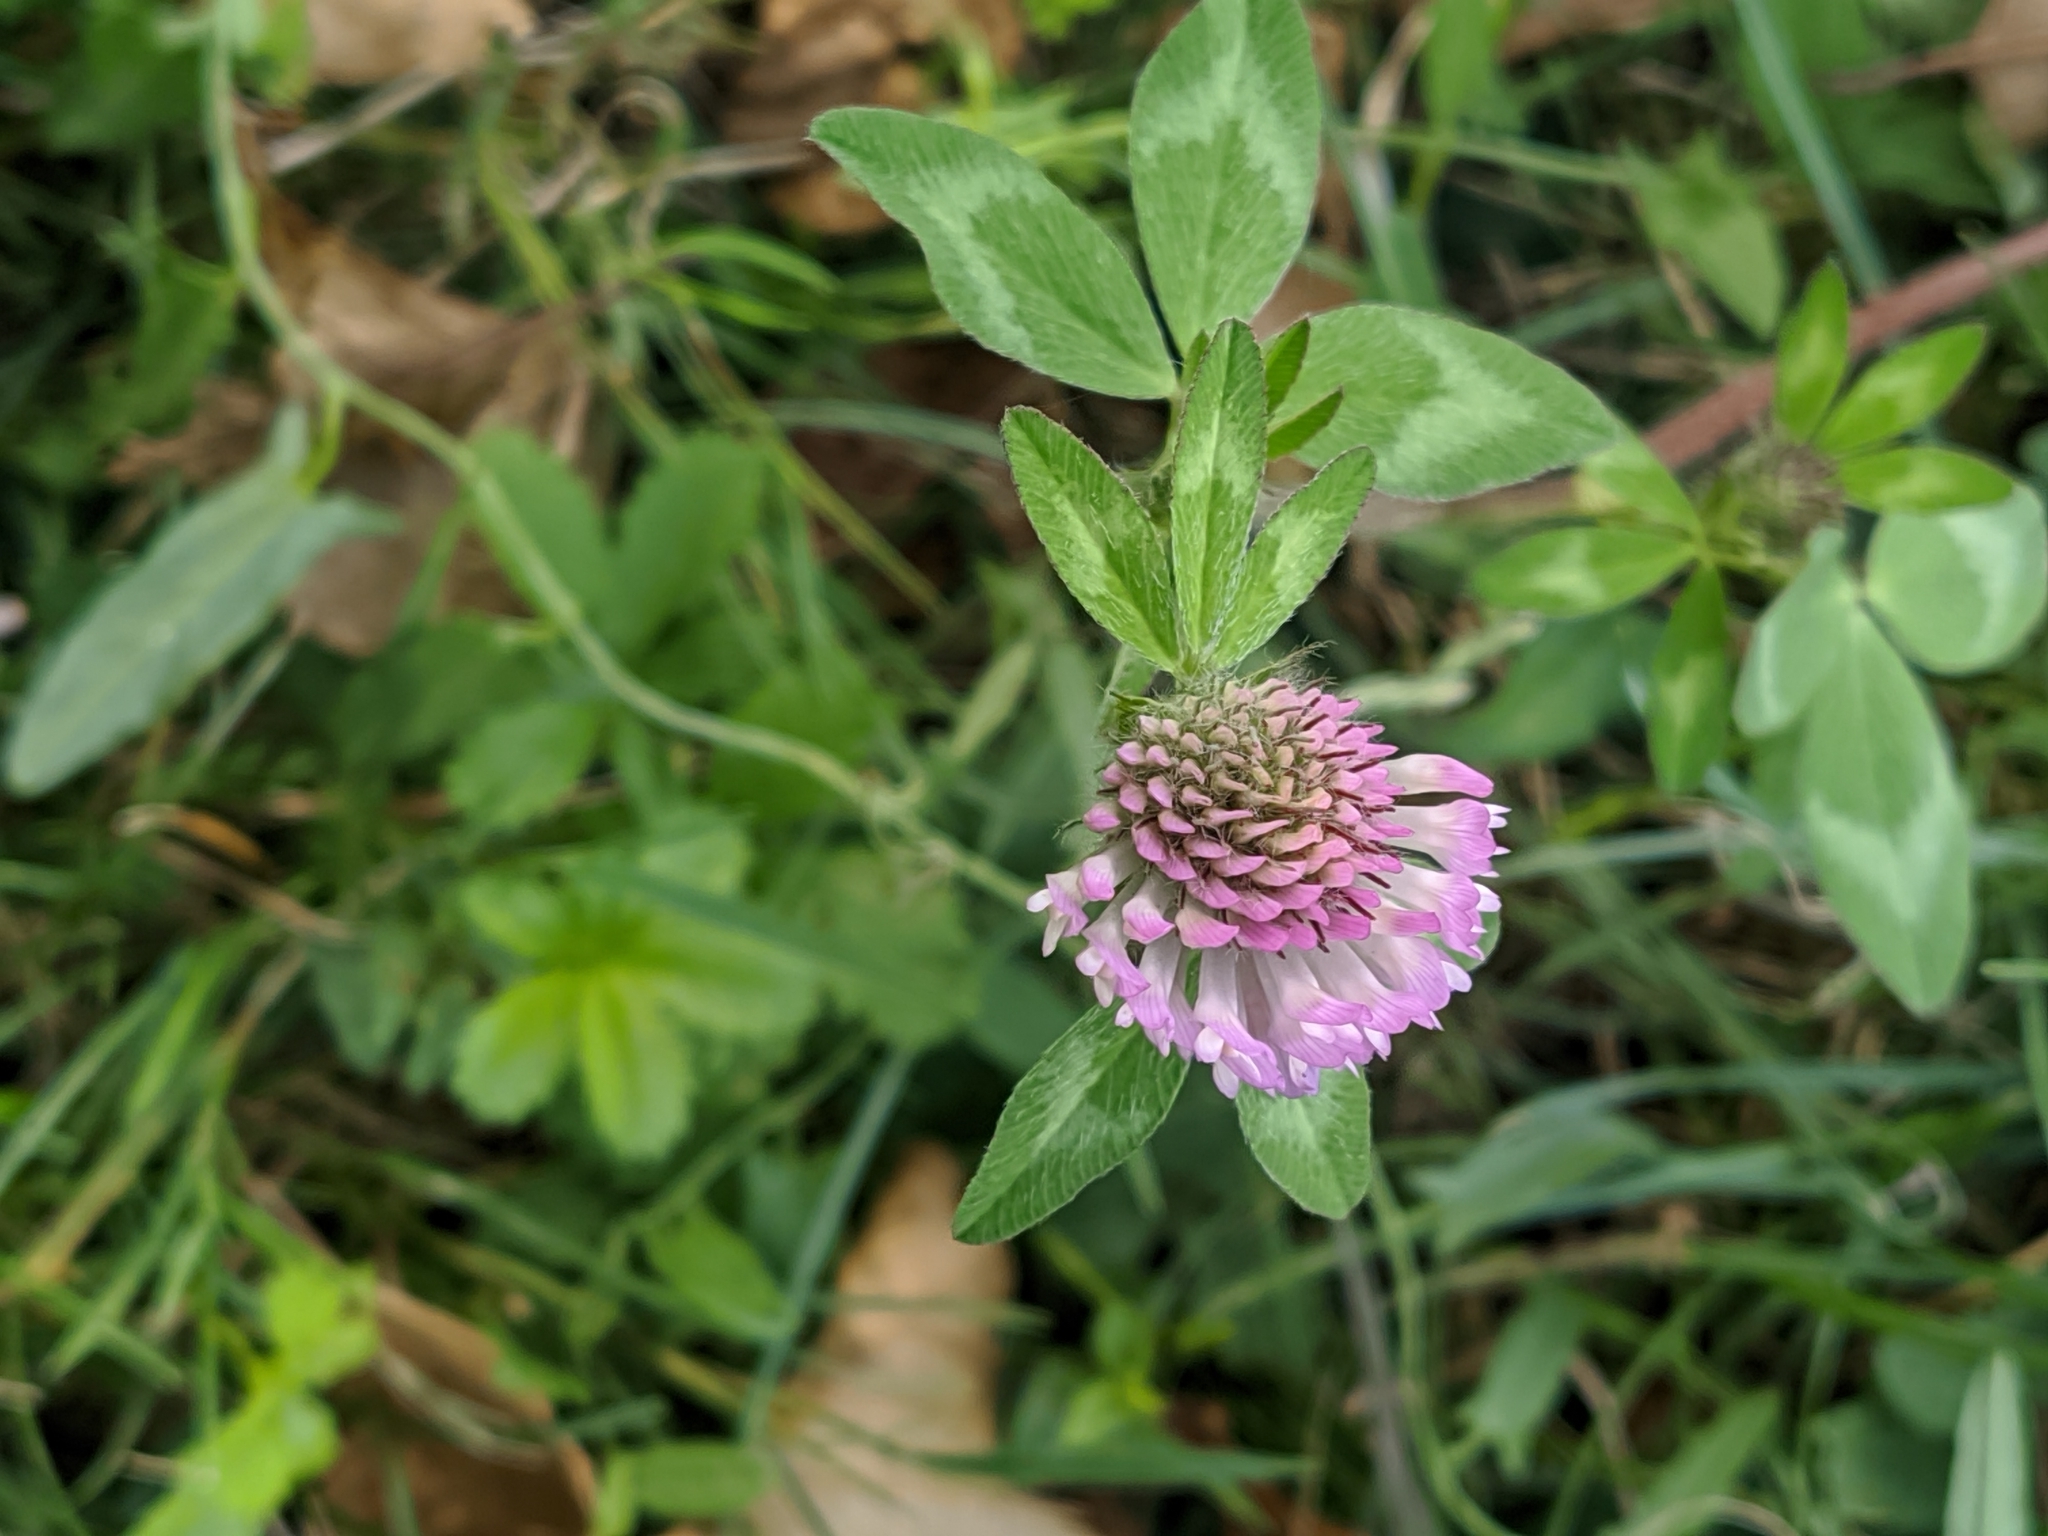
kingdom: Plantae
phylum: Tracheophyta
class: Magnoliopsida
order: Fabales
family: Fabaceae
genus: Trifolium
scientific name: Trifolium pratense
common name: Red clover
